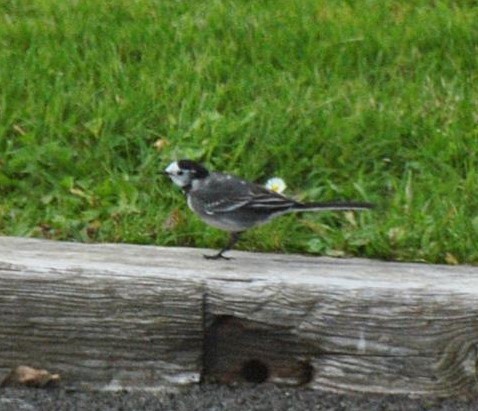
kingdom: Animalia
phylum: Chordata
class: Aves
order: Passeriformes
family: Motacillidae
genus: Motacilla
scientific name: Motacilla alba
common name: White wagtail
